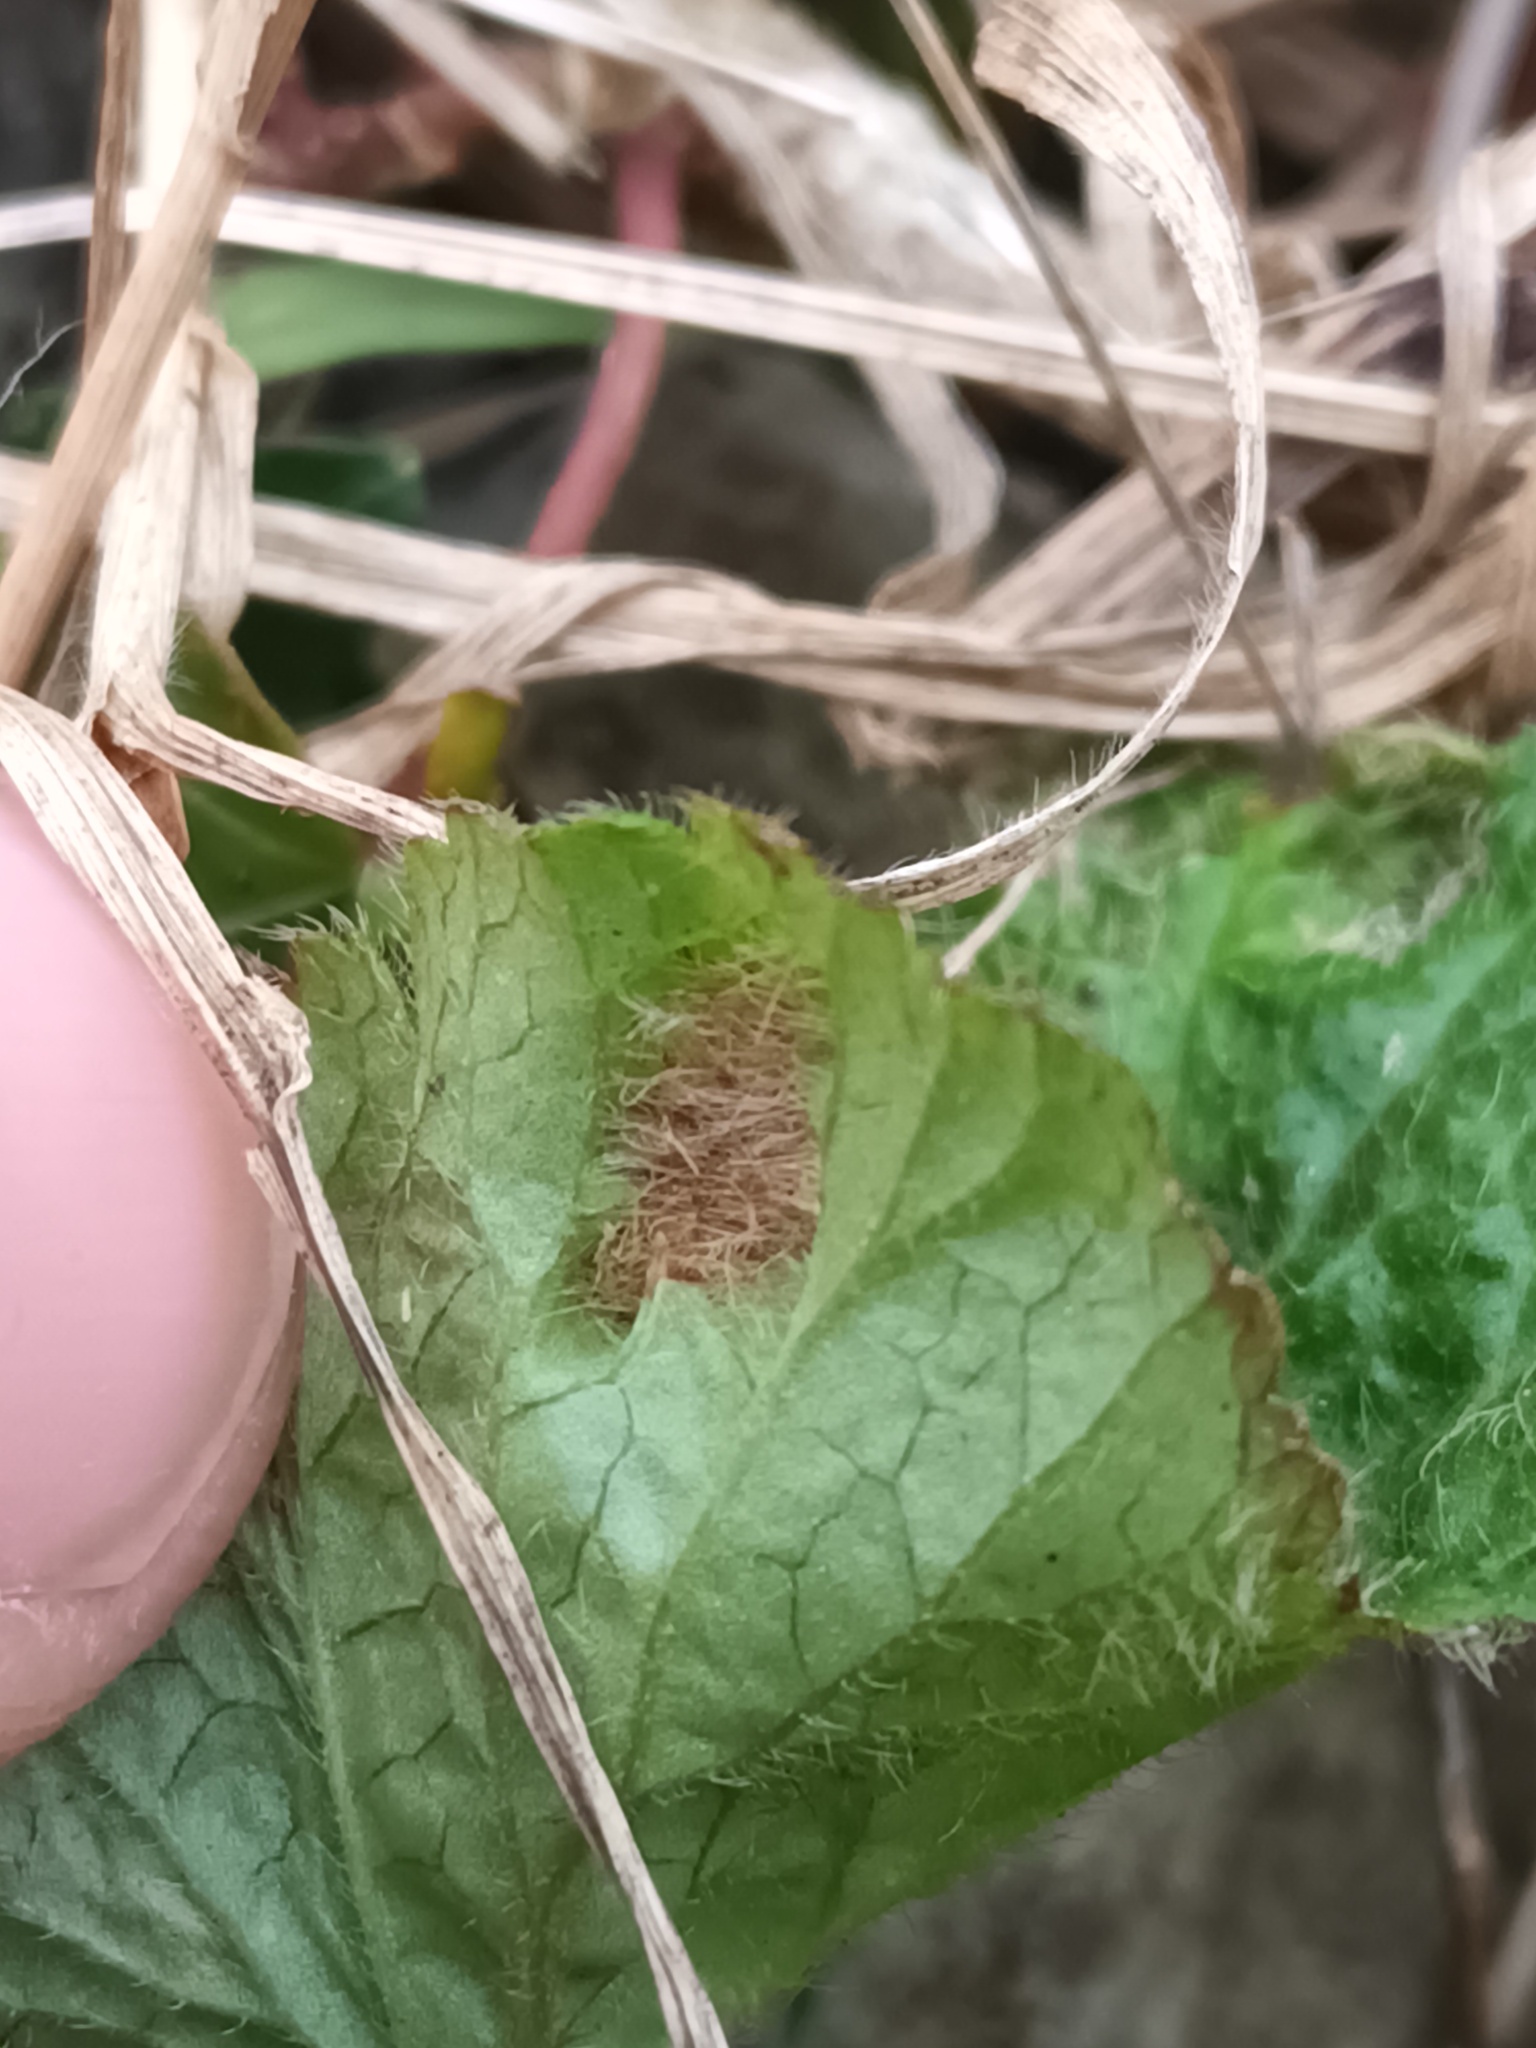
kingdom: Animalia
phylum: Arthropoda
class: Arachnida
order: Trombidiformes
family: Eriophyidae
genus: Cecidophyes
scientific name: Cecidophyes nudus
